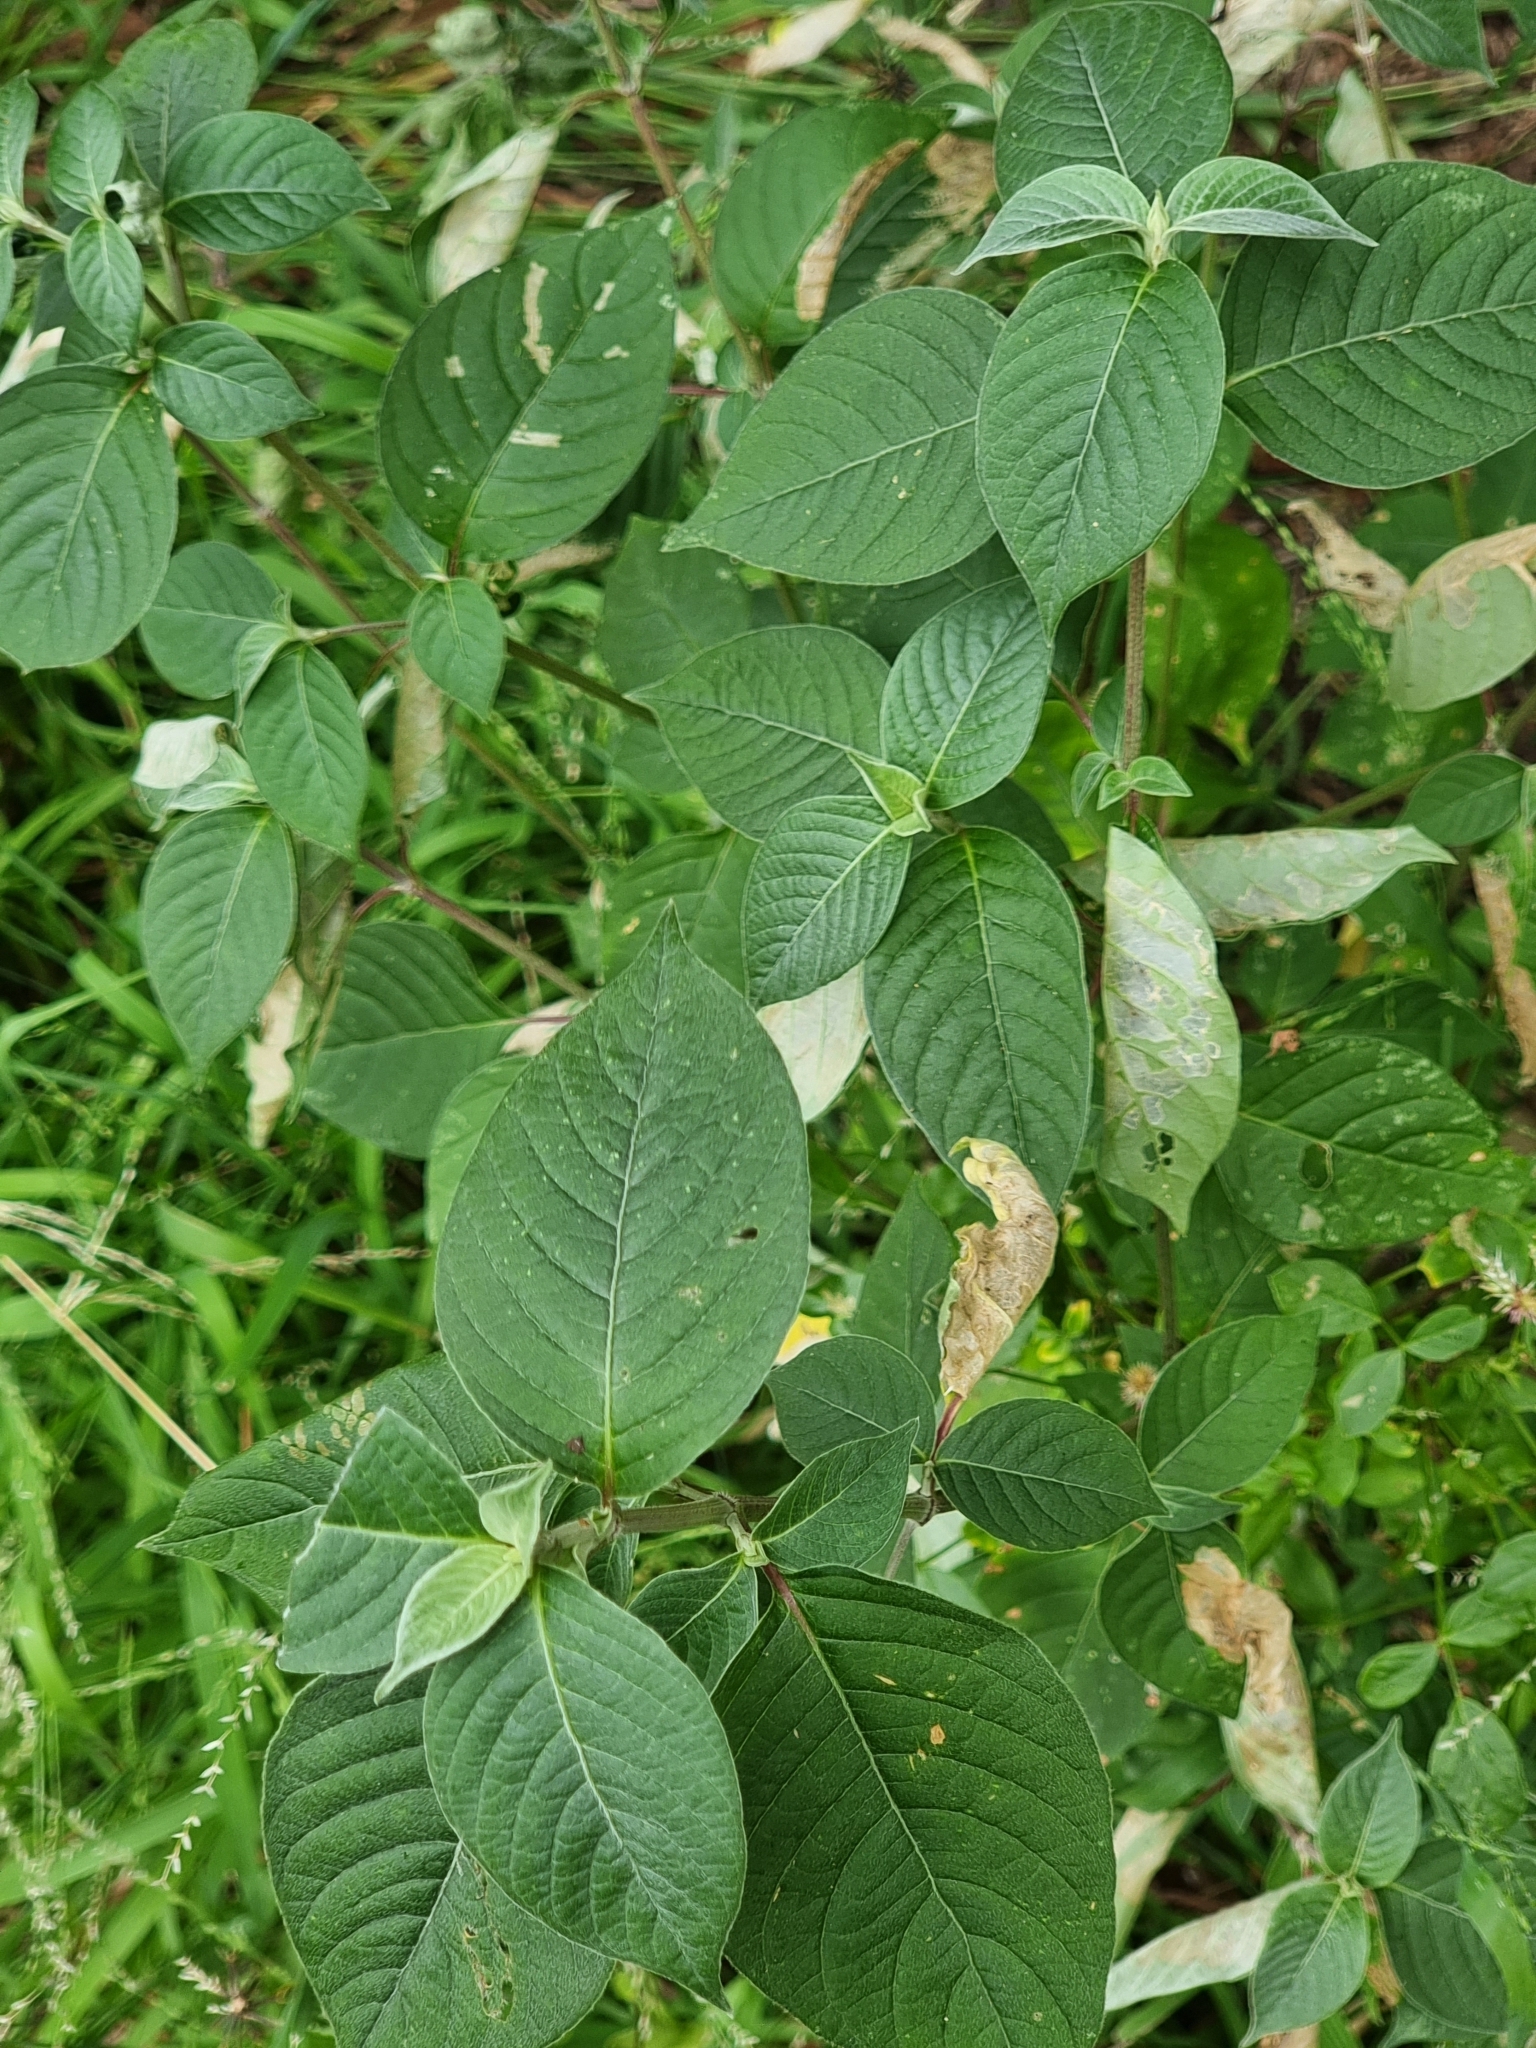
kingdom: Plantae
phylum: Tracheophyta
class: Magnoliopsida
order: Caryophyllales
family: Amaranthaceae
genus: Achyranthes
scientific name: Achyranthes aspera
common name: Devil's horsewhip
